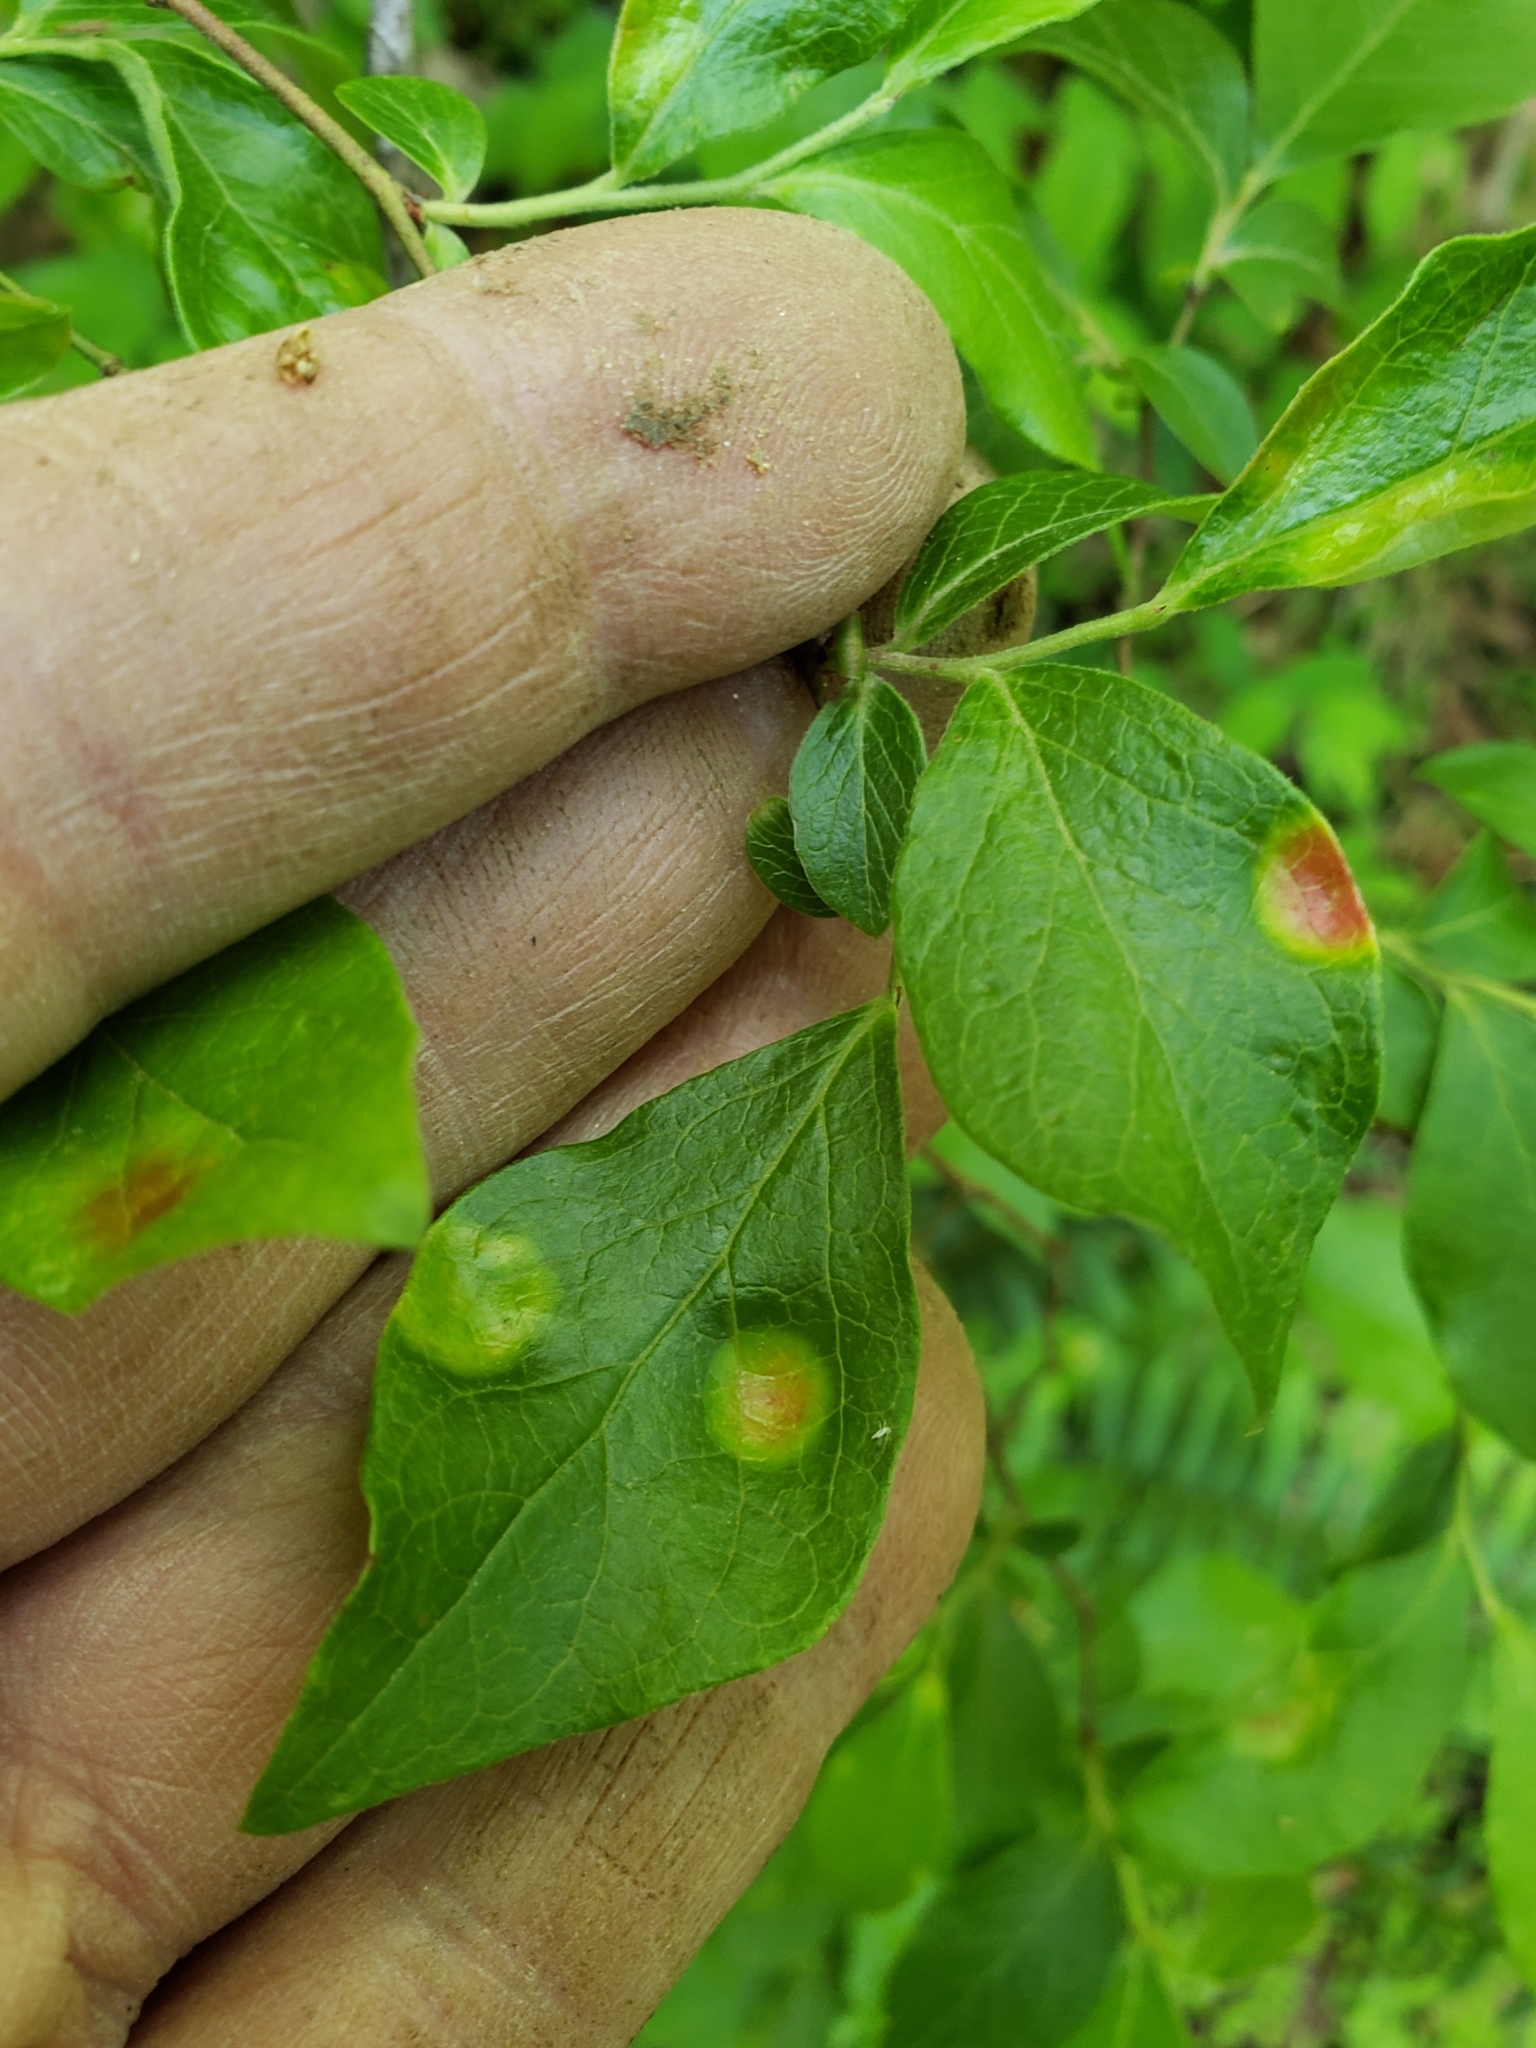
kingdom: Fungi
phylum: Basidiomycota
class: Exobasidiomycetes
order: Exobasidiales
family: Exobasidiaceae
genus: Exobasidium
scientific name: Exobasidium vaccinii
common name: Cowberry redleaf
